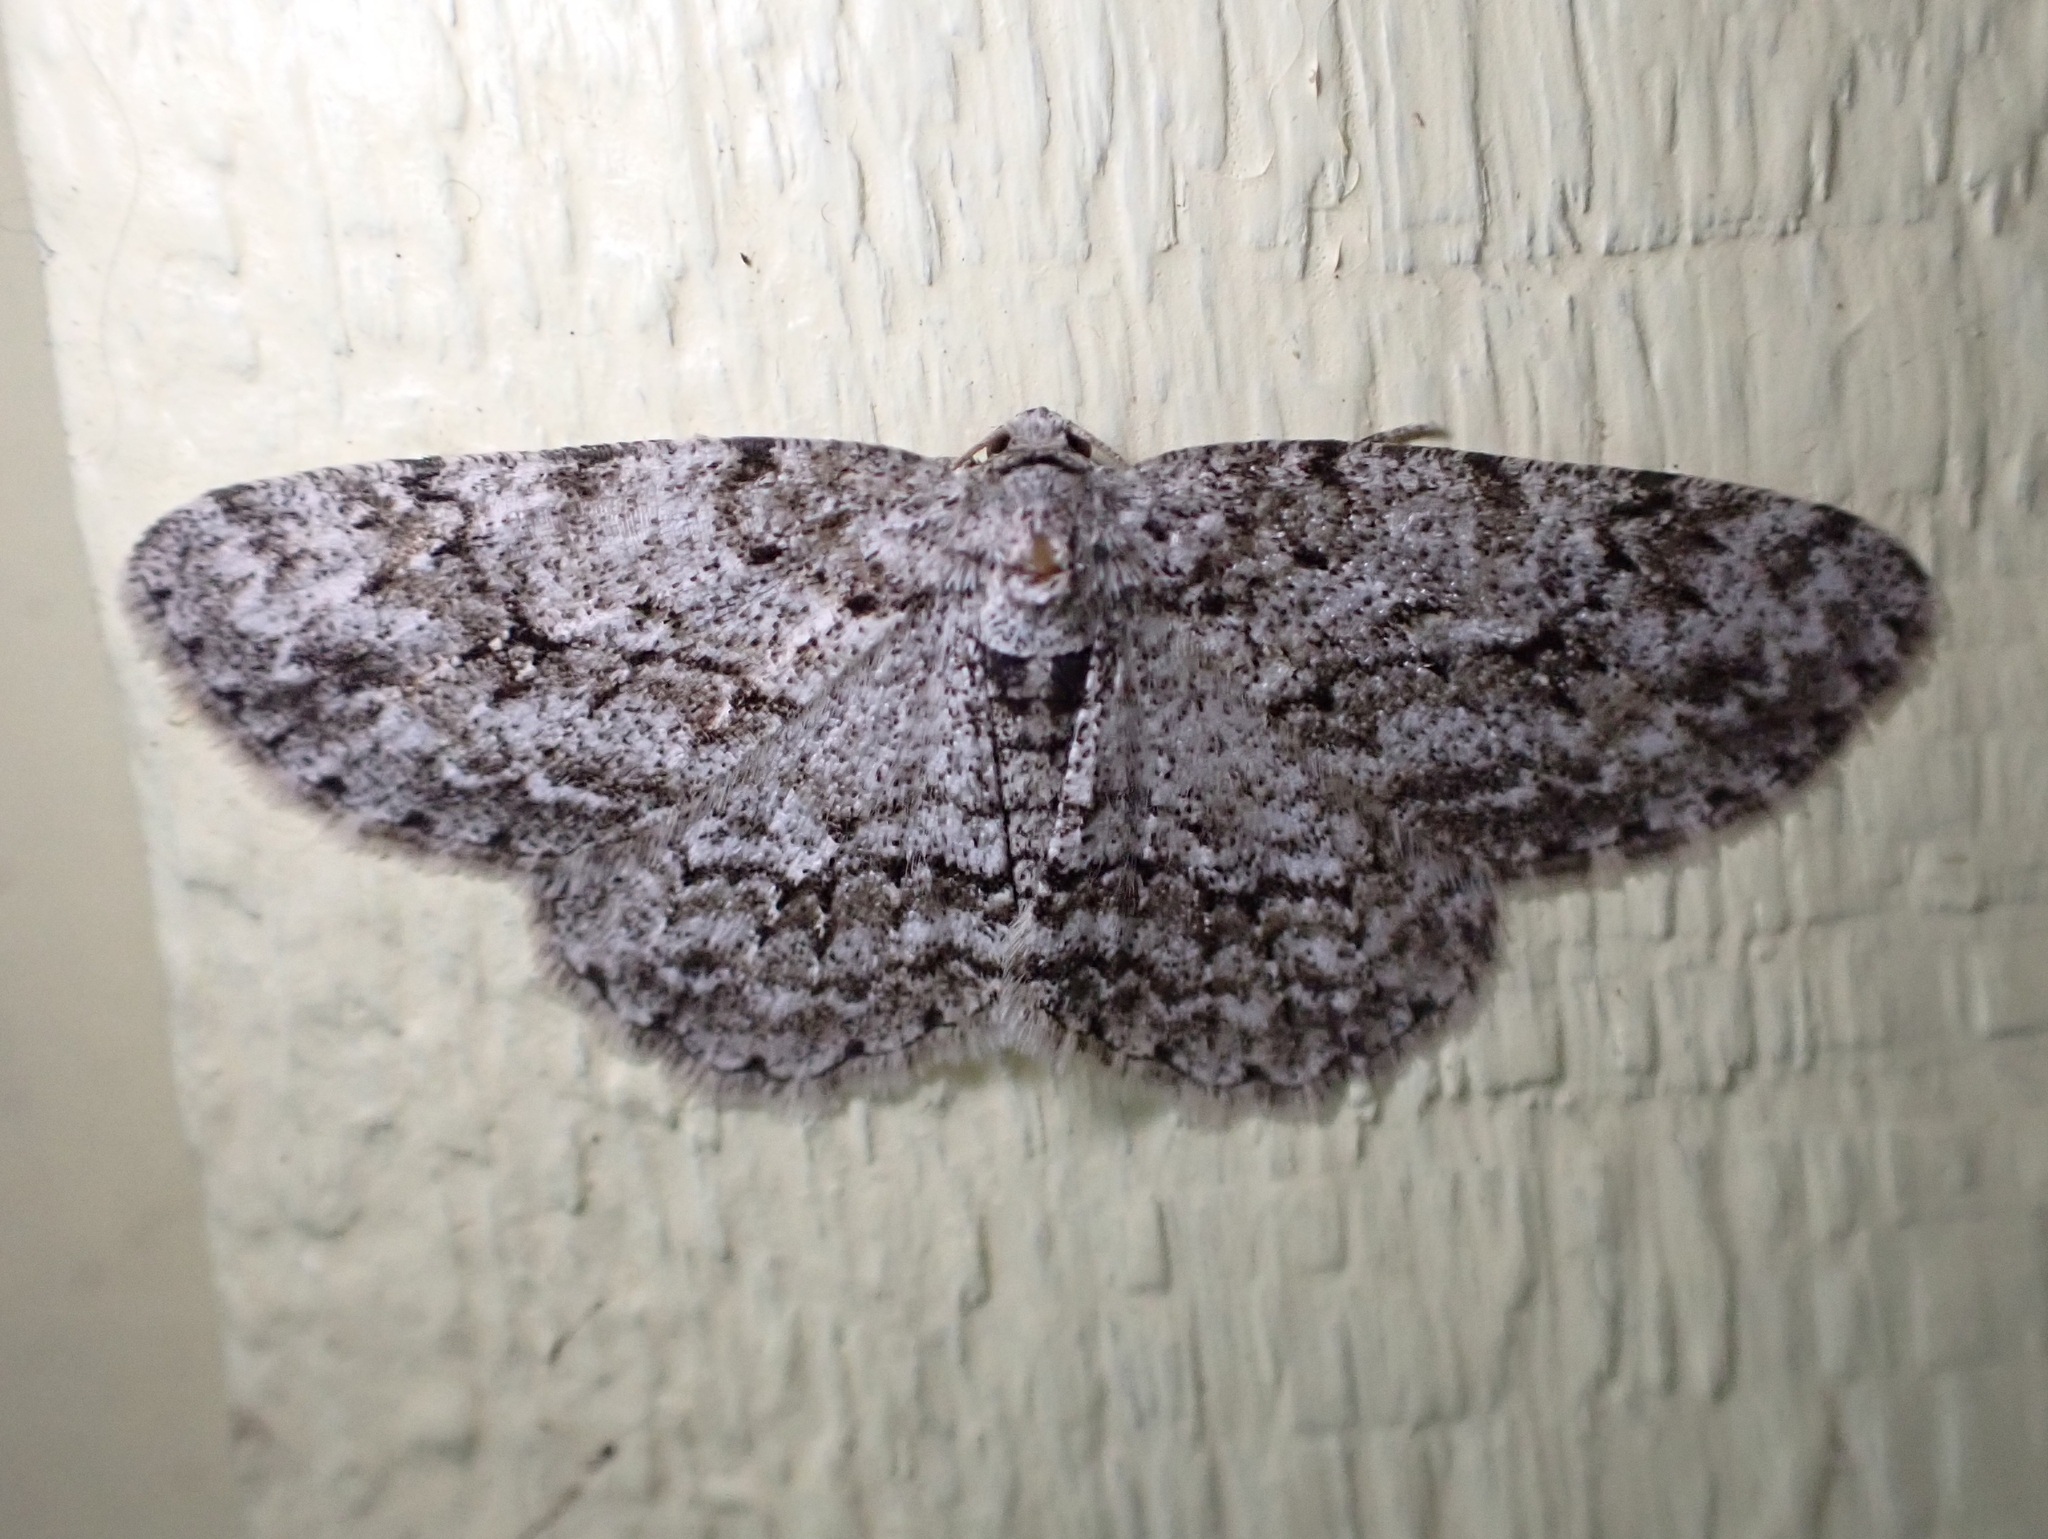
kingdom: Animalia
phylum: Arthropoda
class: Insecta
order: Lepidoptera
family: Geometridae
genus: Ectropis
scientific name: Ectropis crepuscularia
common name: Engrailed
